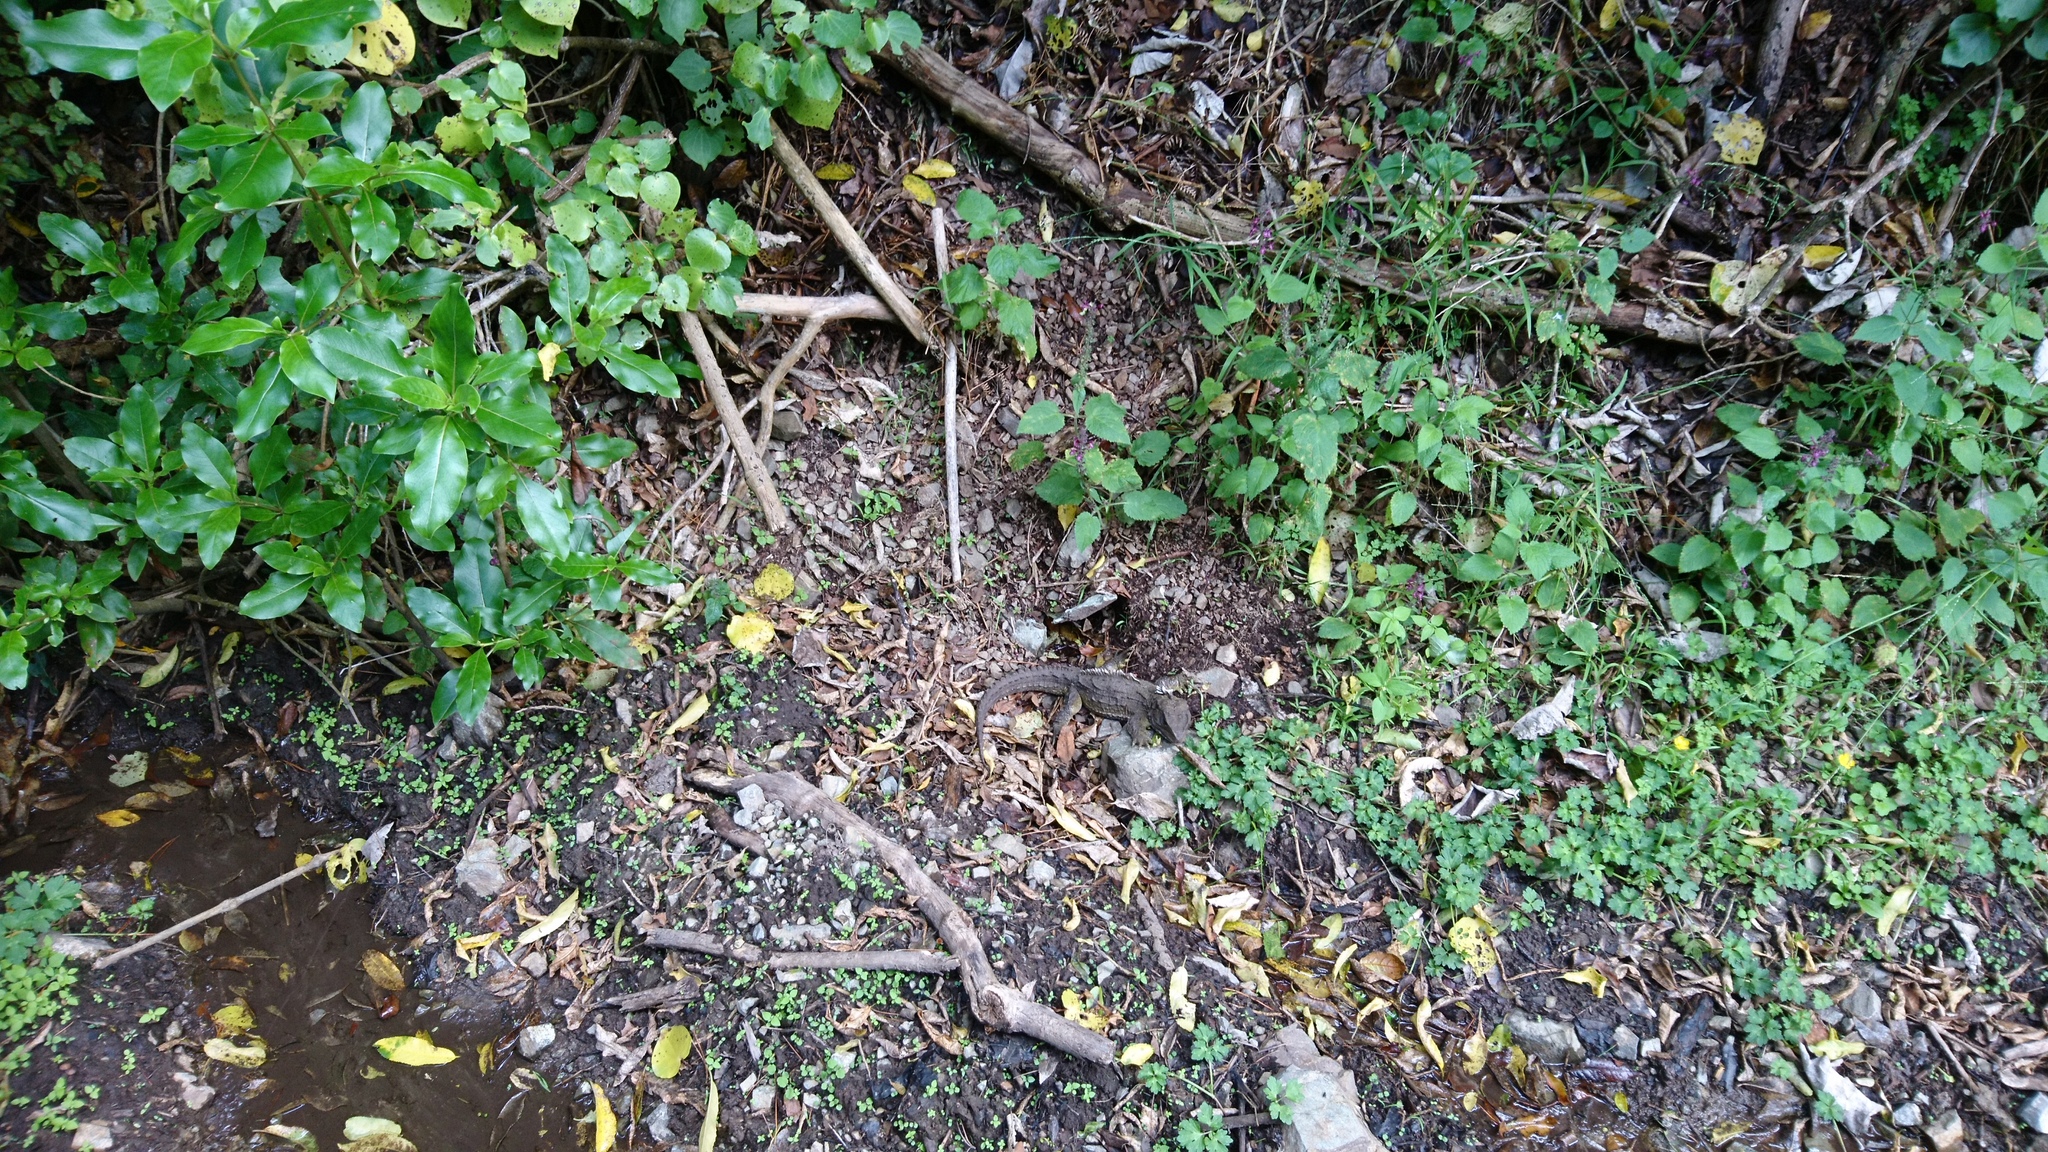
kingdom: Animalia
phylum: Chordata
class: Sphenodontia
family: Sphenodontidae
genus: Sphenodon
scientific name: Sphenodon punctatus
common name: Tuatara
